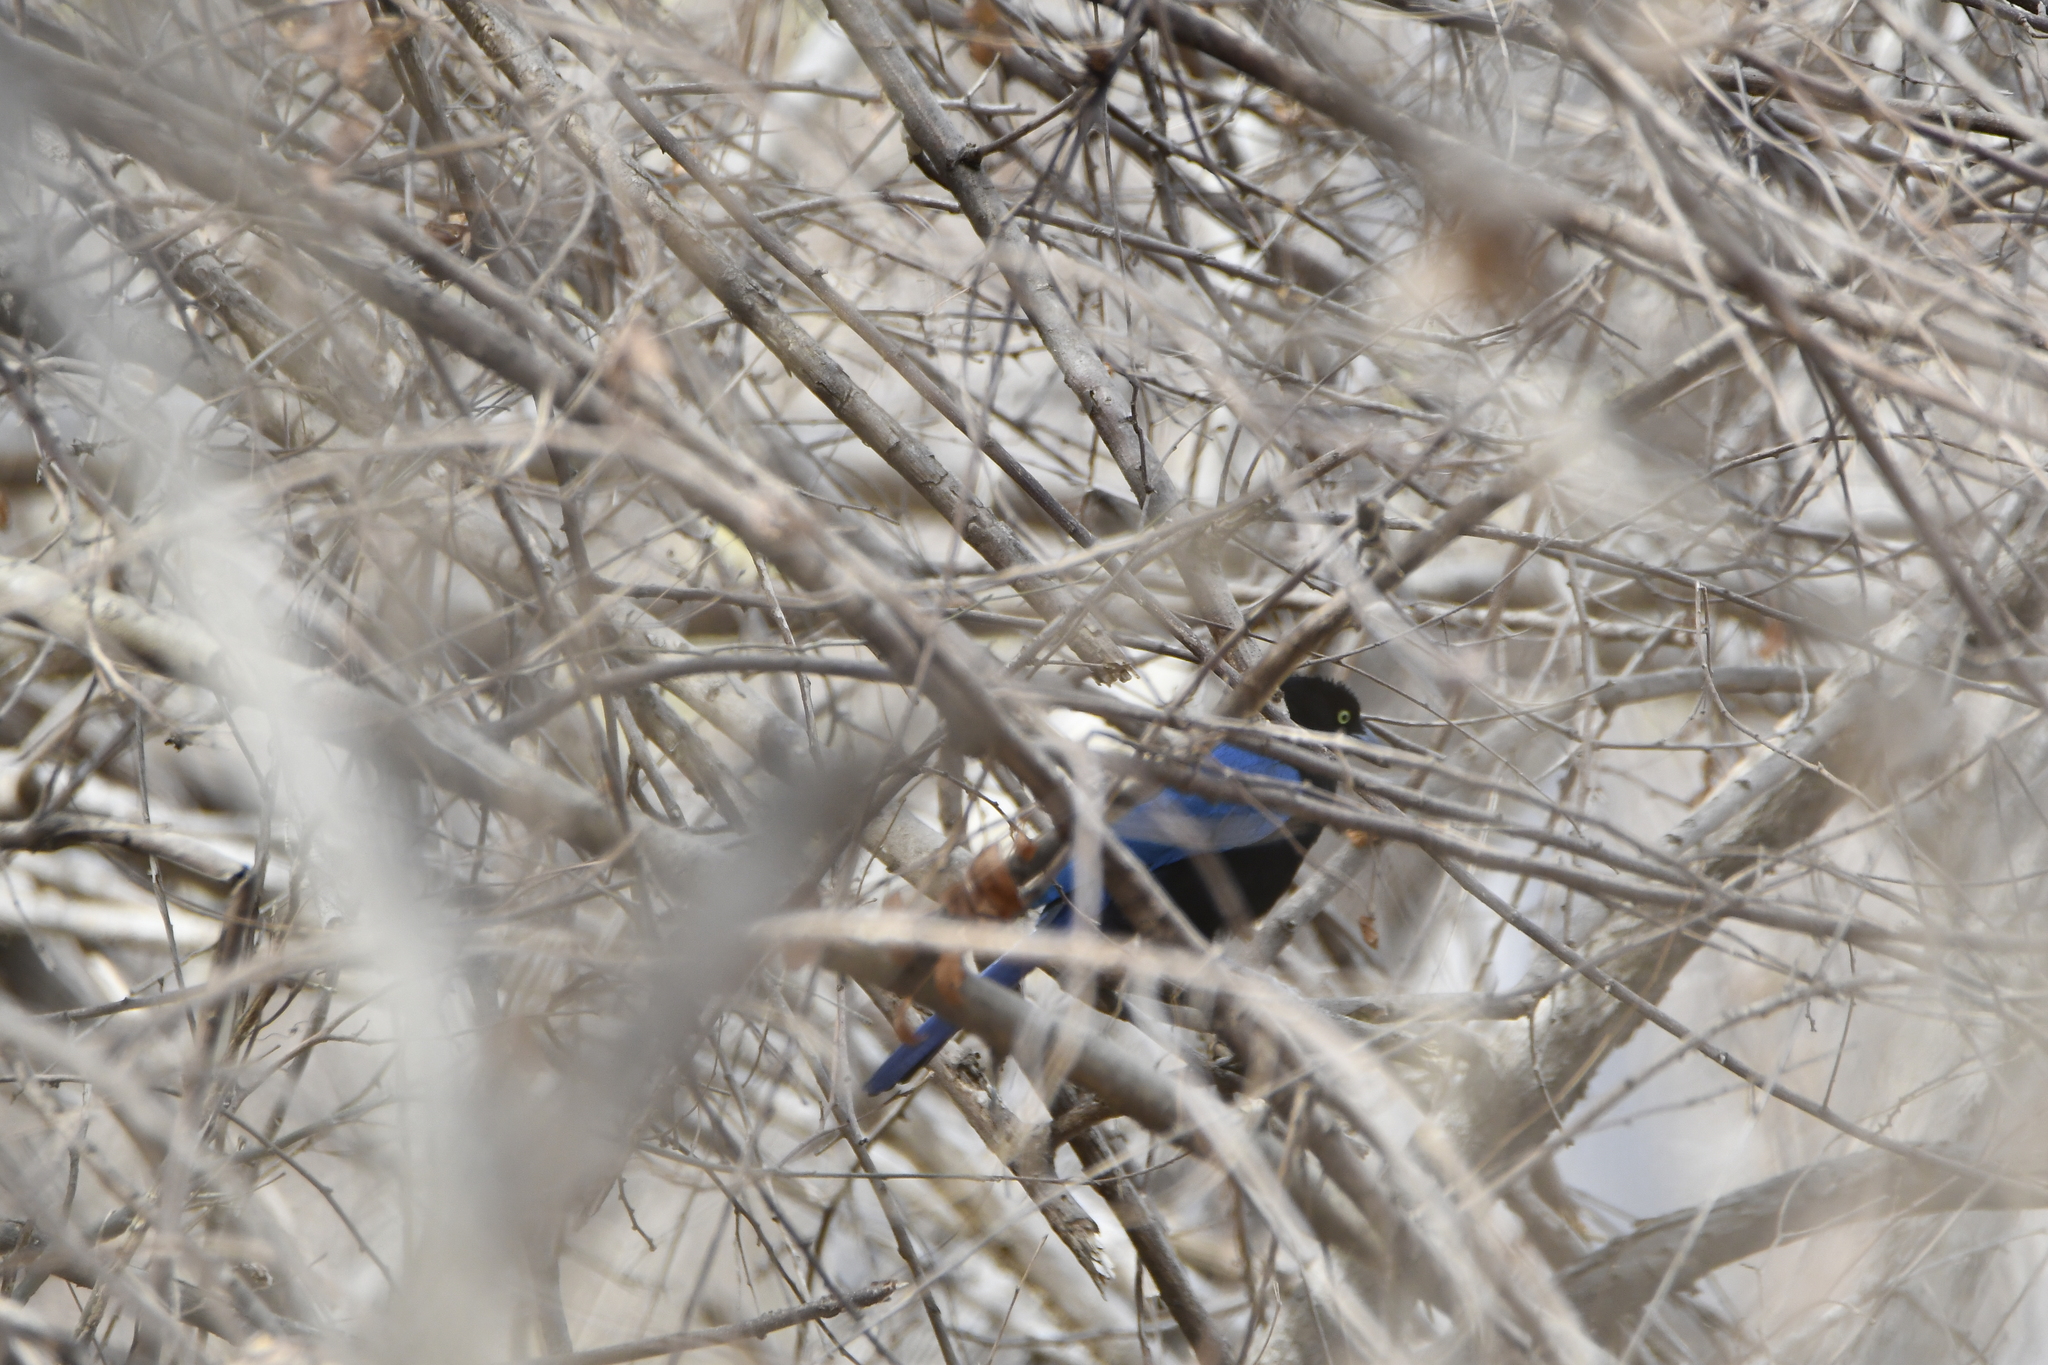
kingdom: Animalia
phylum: Chordata
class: Aves
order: Passeriformes
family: Corvidae
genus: Cyanocorax
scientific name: Cyanocorax sanblasianus
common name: San blas jay
